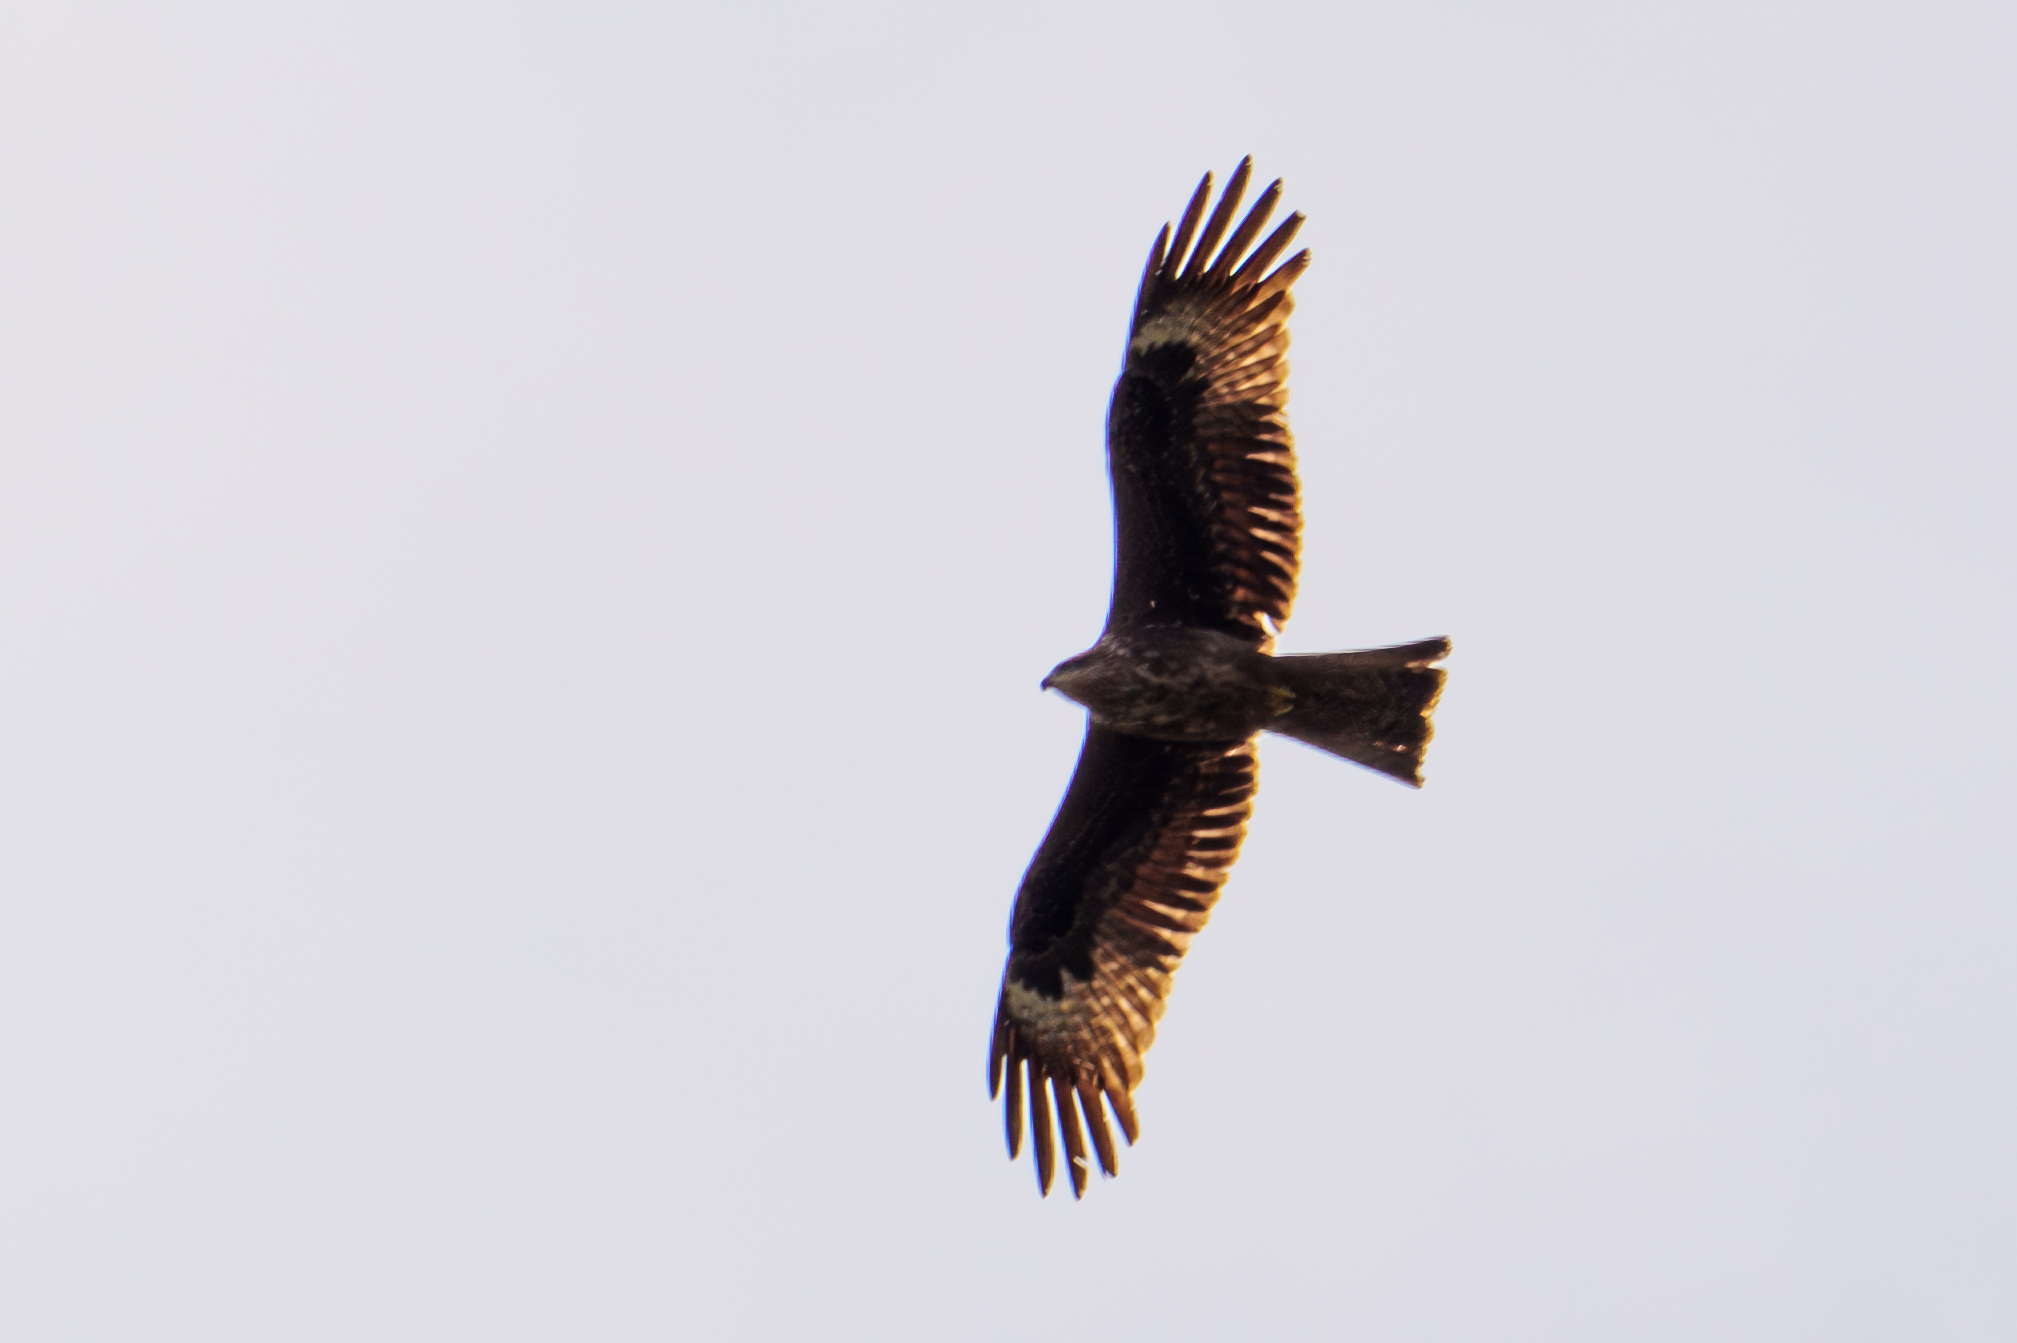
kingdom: Animalia
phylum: Chordata
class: Aves
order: Accipitriformes
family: Accipitridae
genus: Milvus
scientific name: Milvus migrans
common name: Black kite
